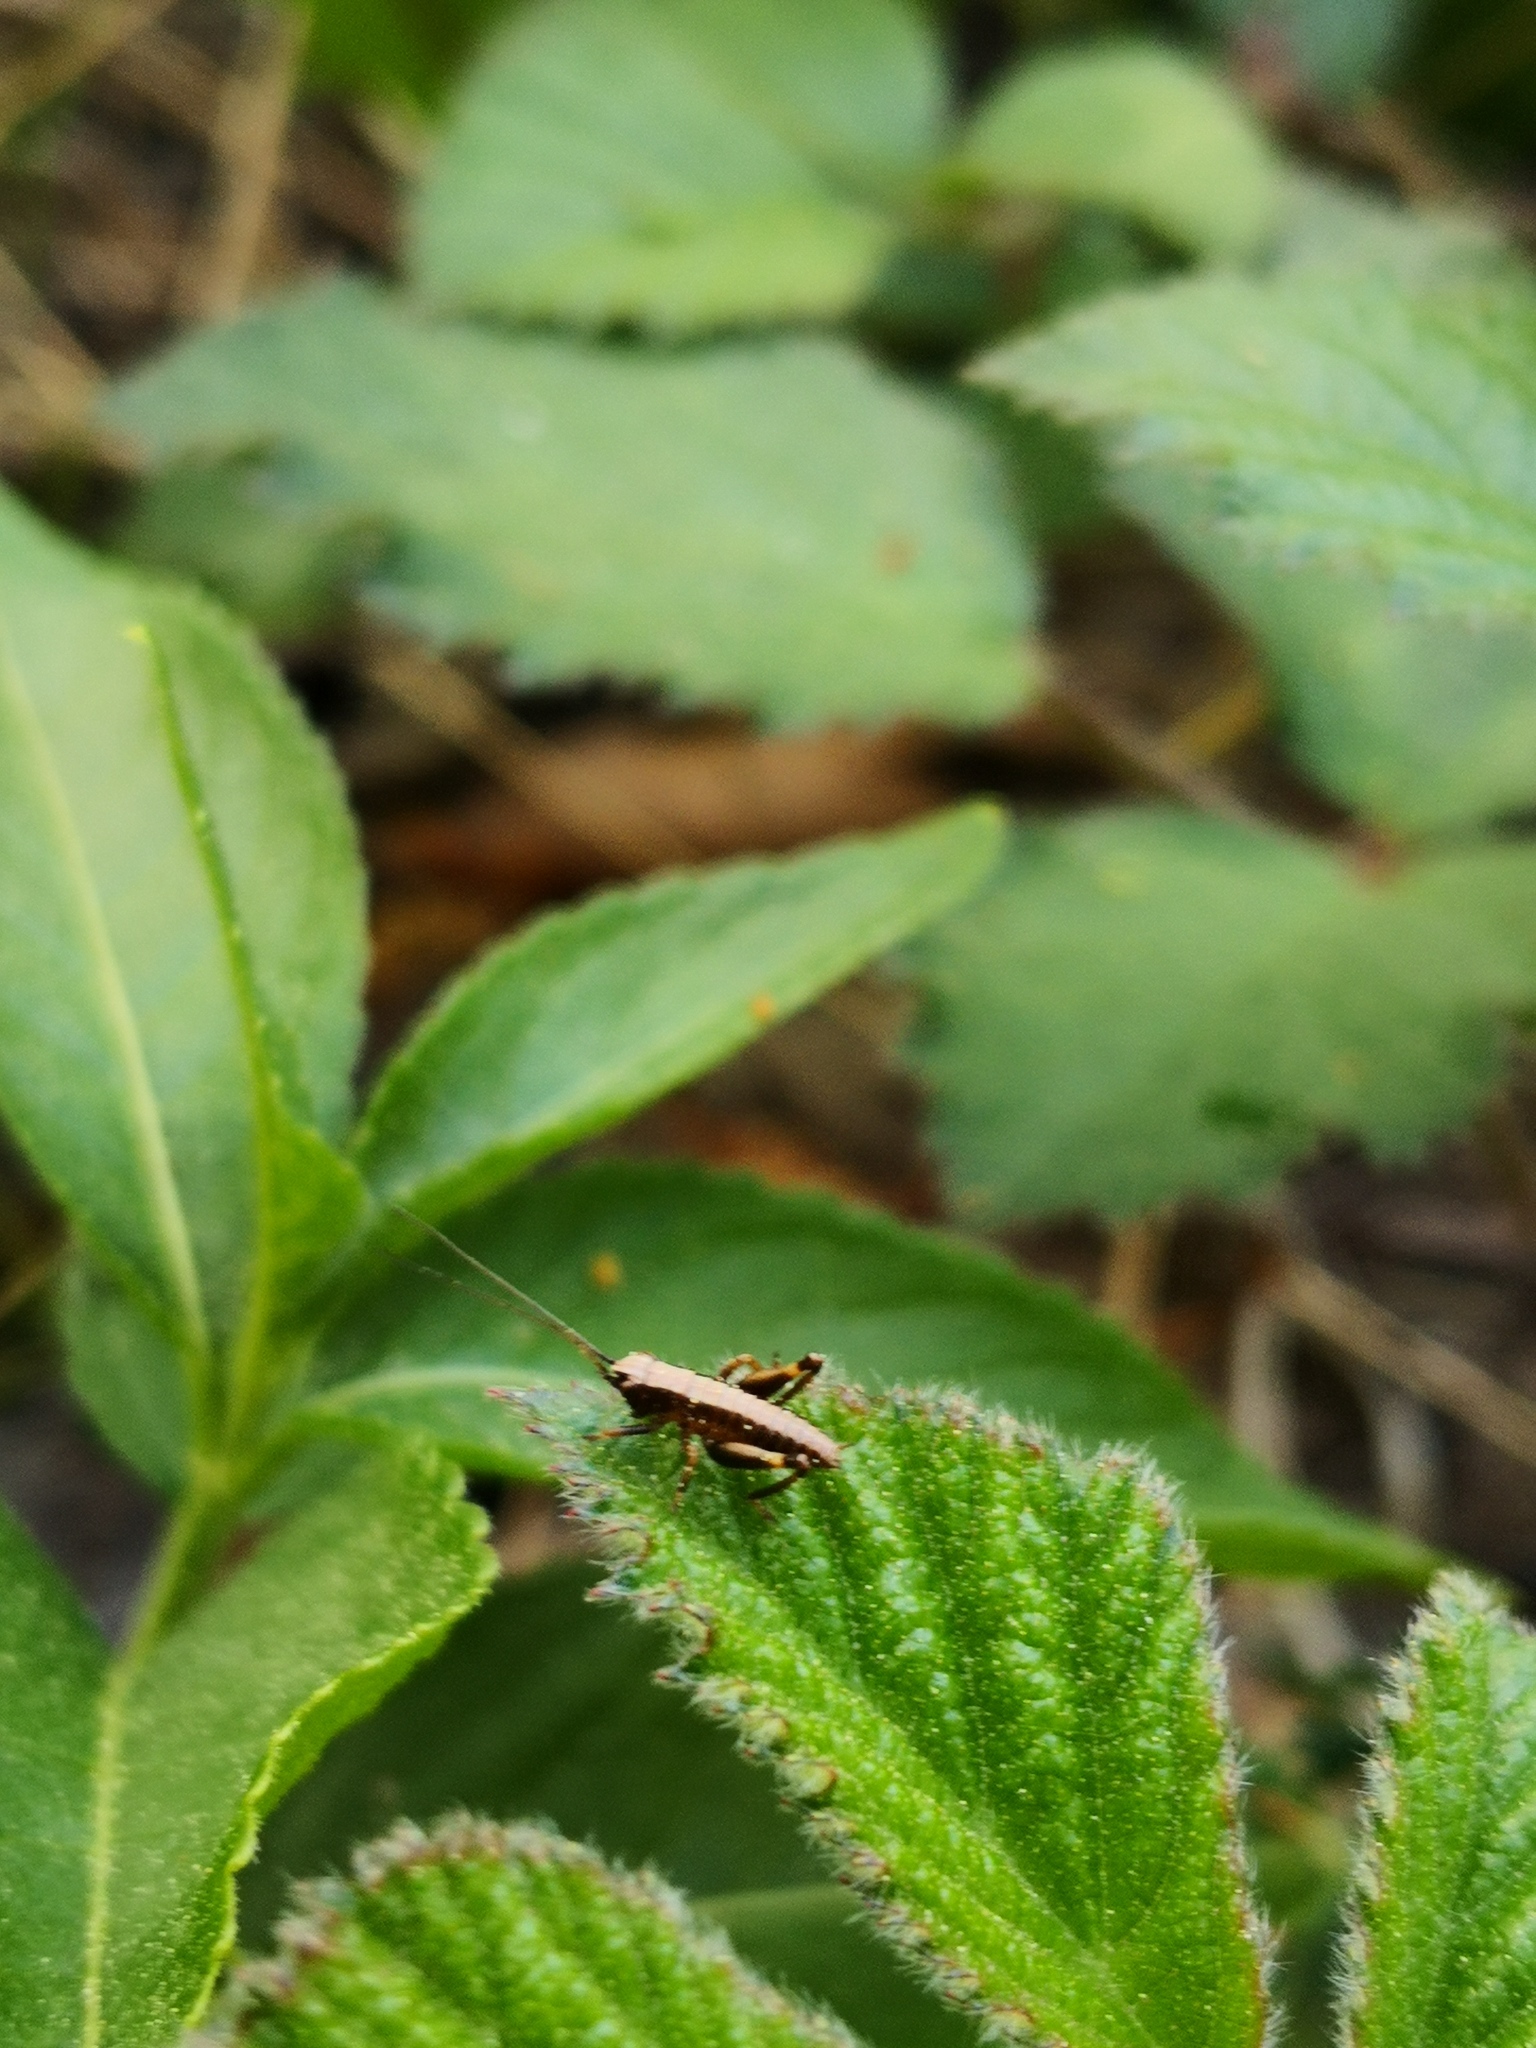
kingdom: Animalia
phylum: Arthropoda
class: Insecta
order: Orthoptera
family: Tettigoniidae
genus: Pholidoptera
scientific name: Pholidoptera griseoaptera
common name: Dark bush-cricket
